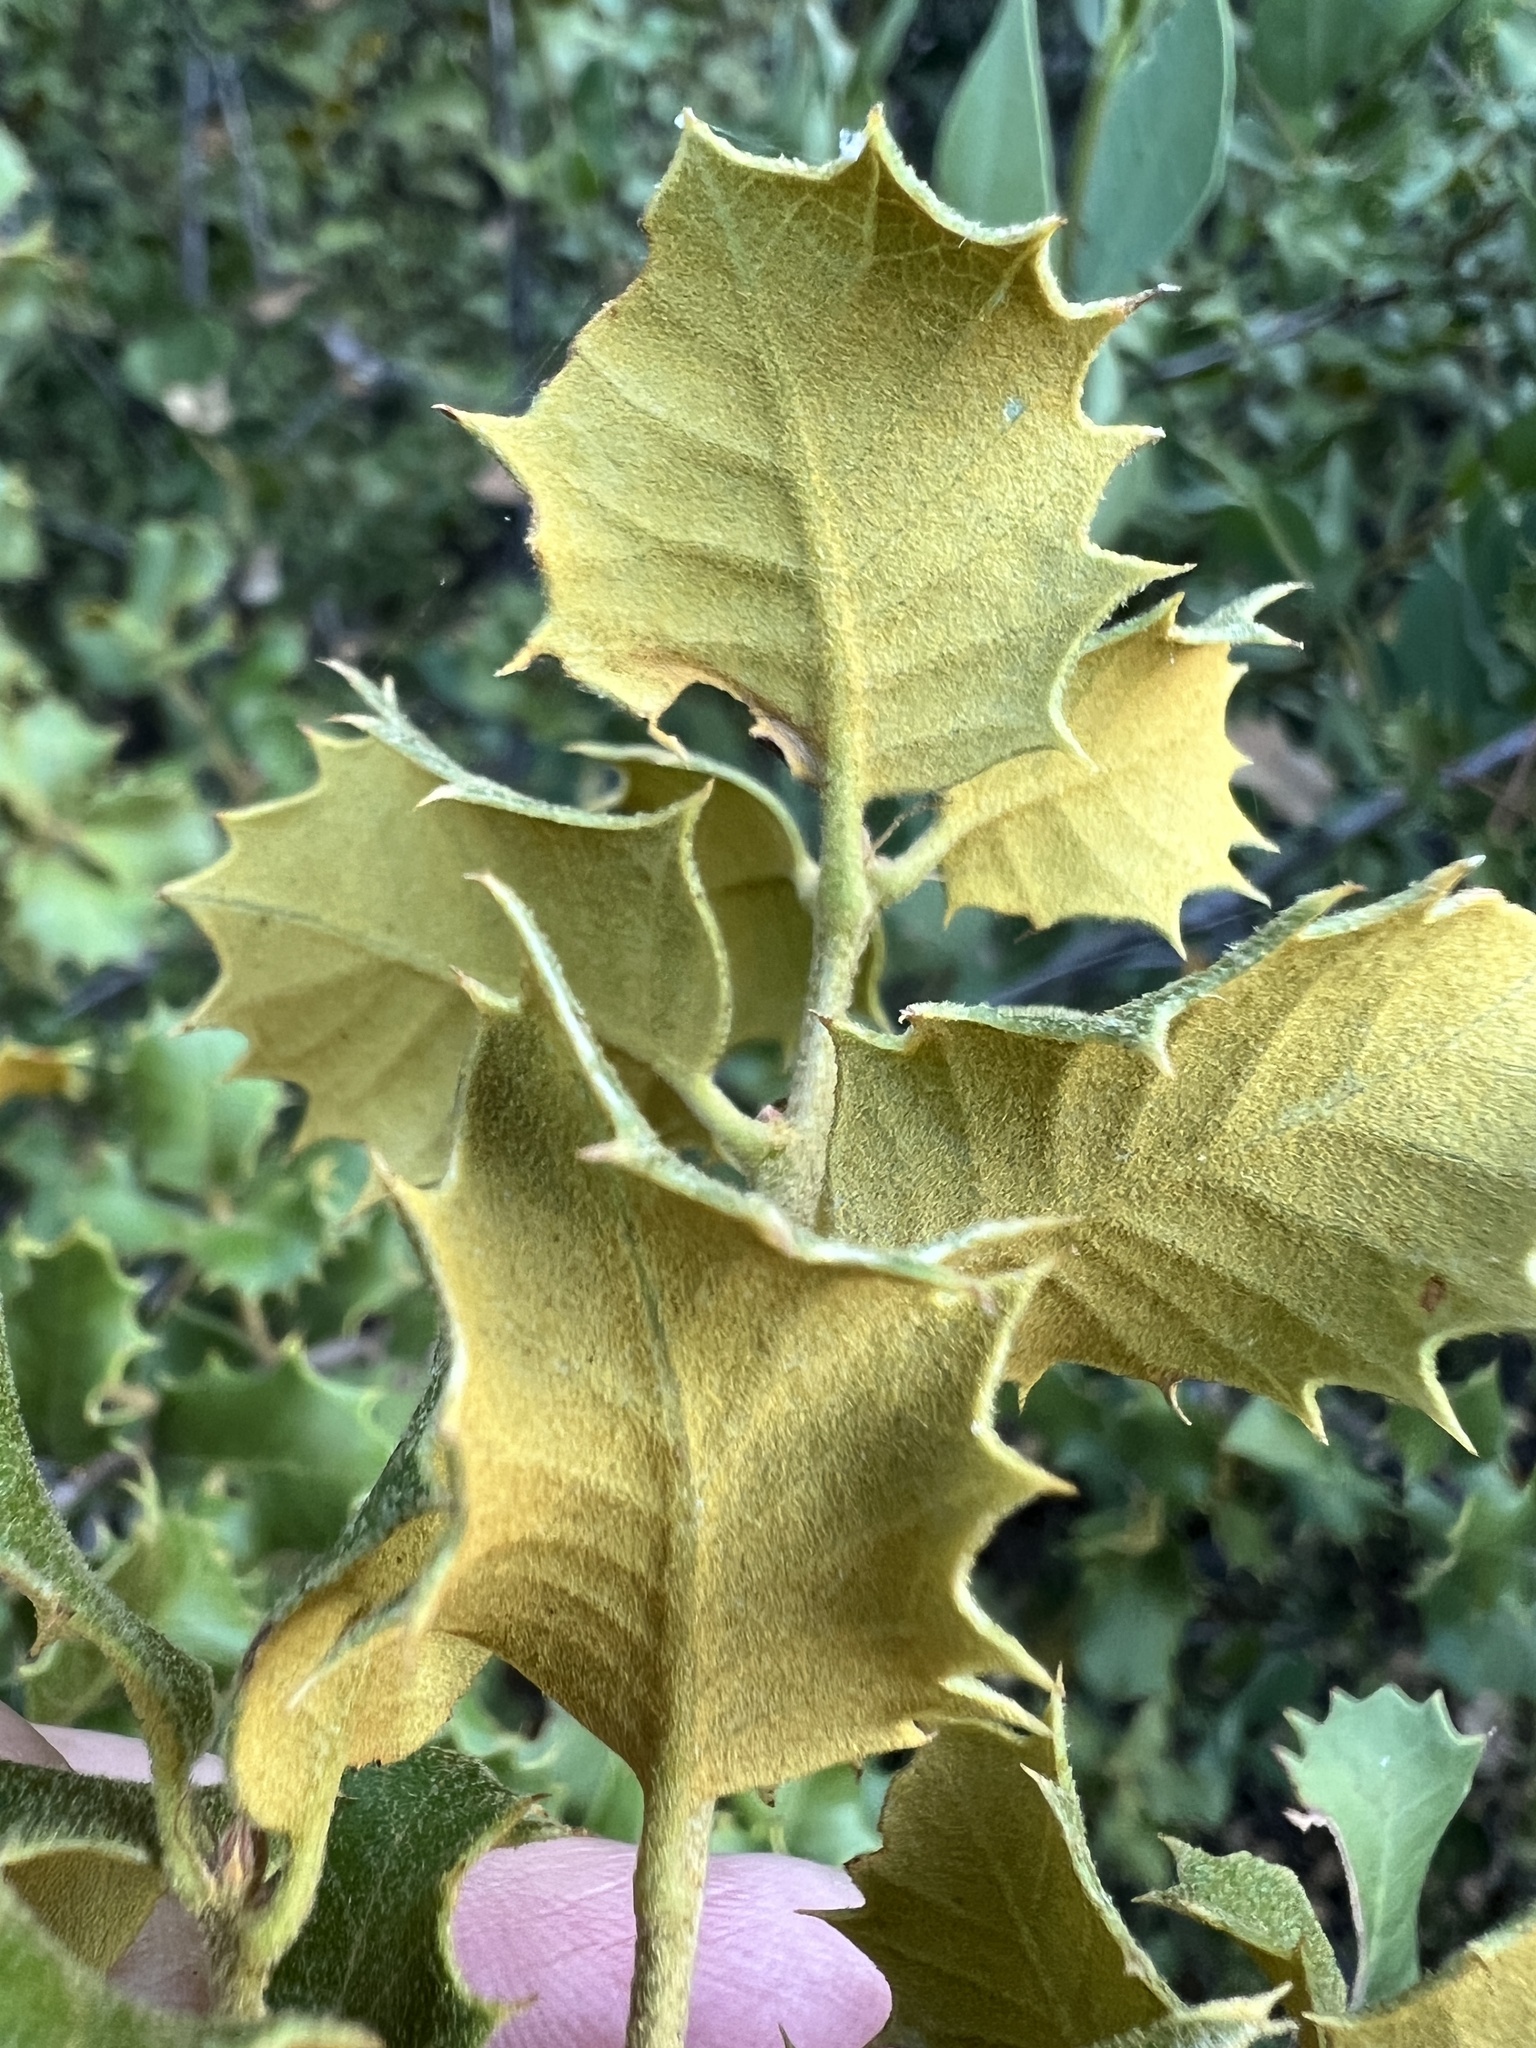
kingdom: Plantae
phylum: Tracheophyta
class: Magnoliopsida
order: Fagales
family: Fagaceae
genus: Quercus
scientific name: Quercus palmeri
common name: Dunn oak
